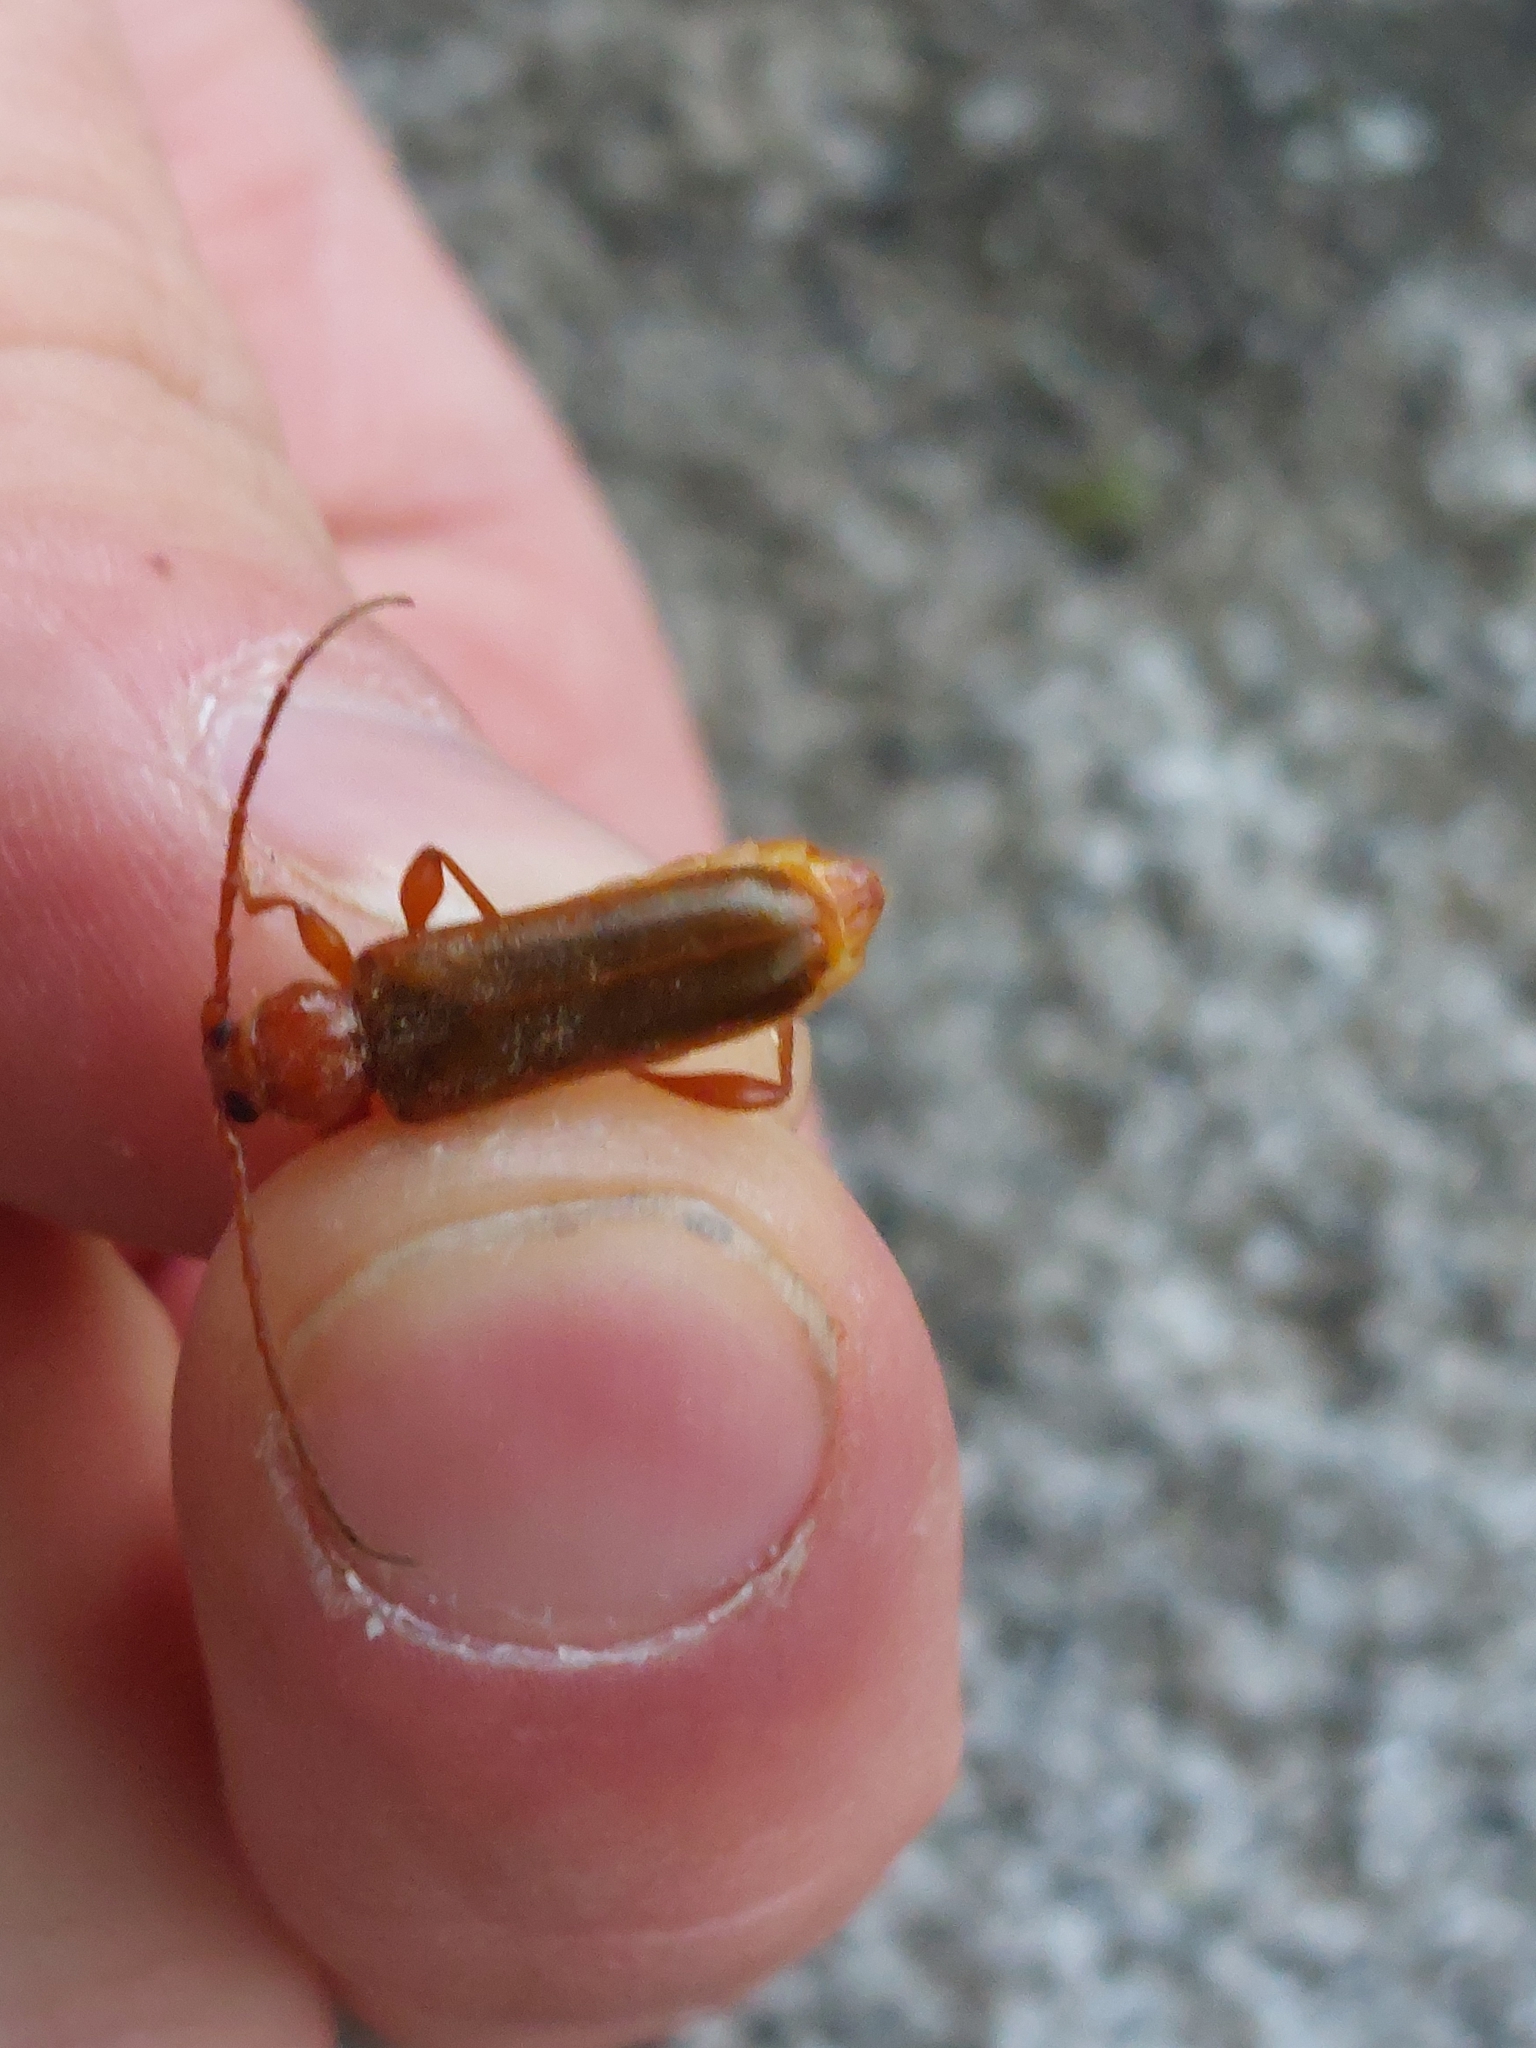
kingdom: Animalia
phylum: Arthropoda
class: Insecta
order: Coleoptera
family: Cerambycidae
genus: Phymatodes
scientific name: Phymatodes testaceus
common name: Long-horned beetle
